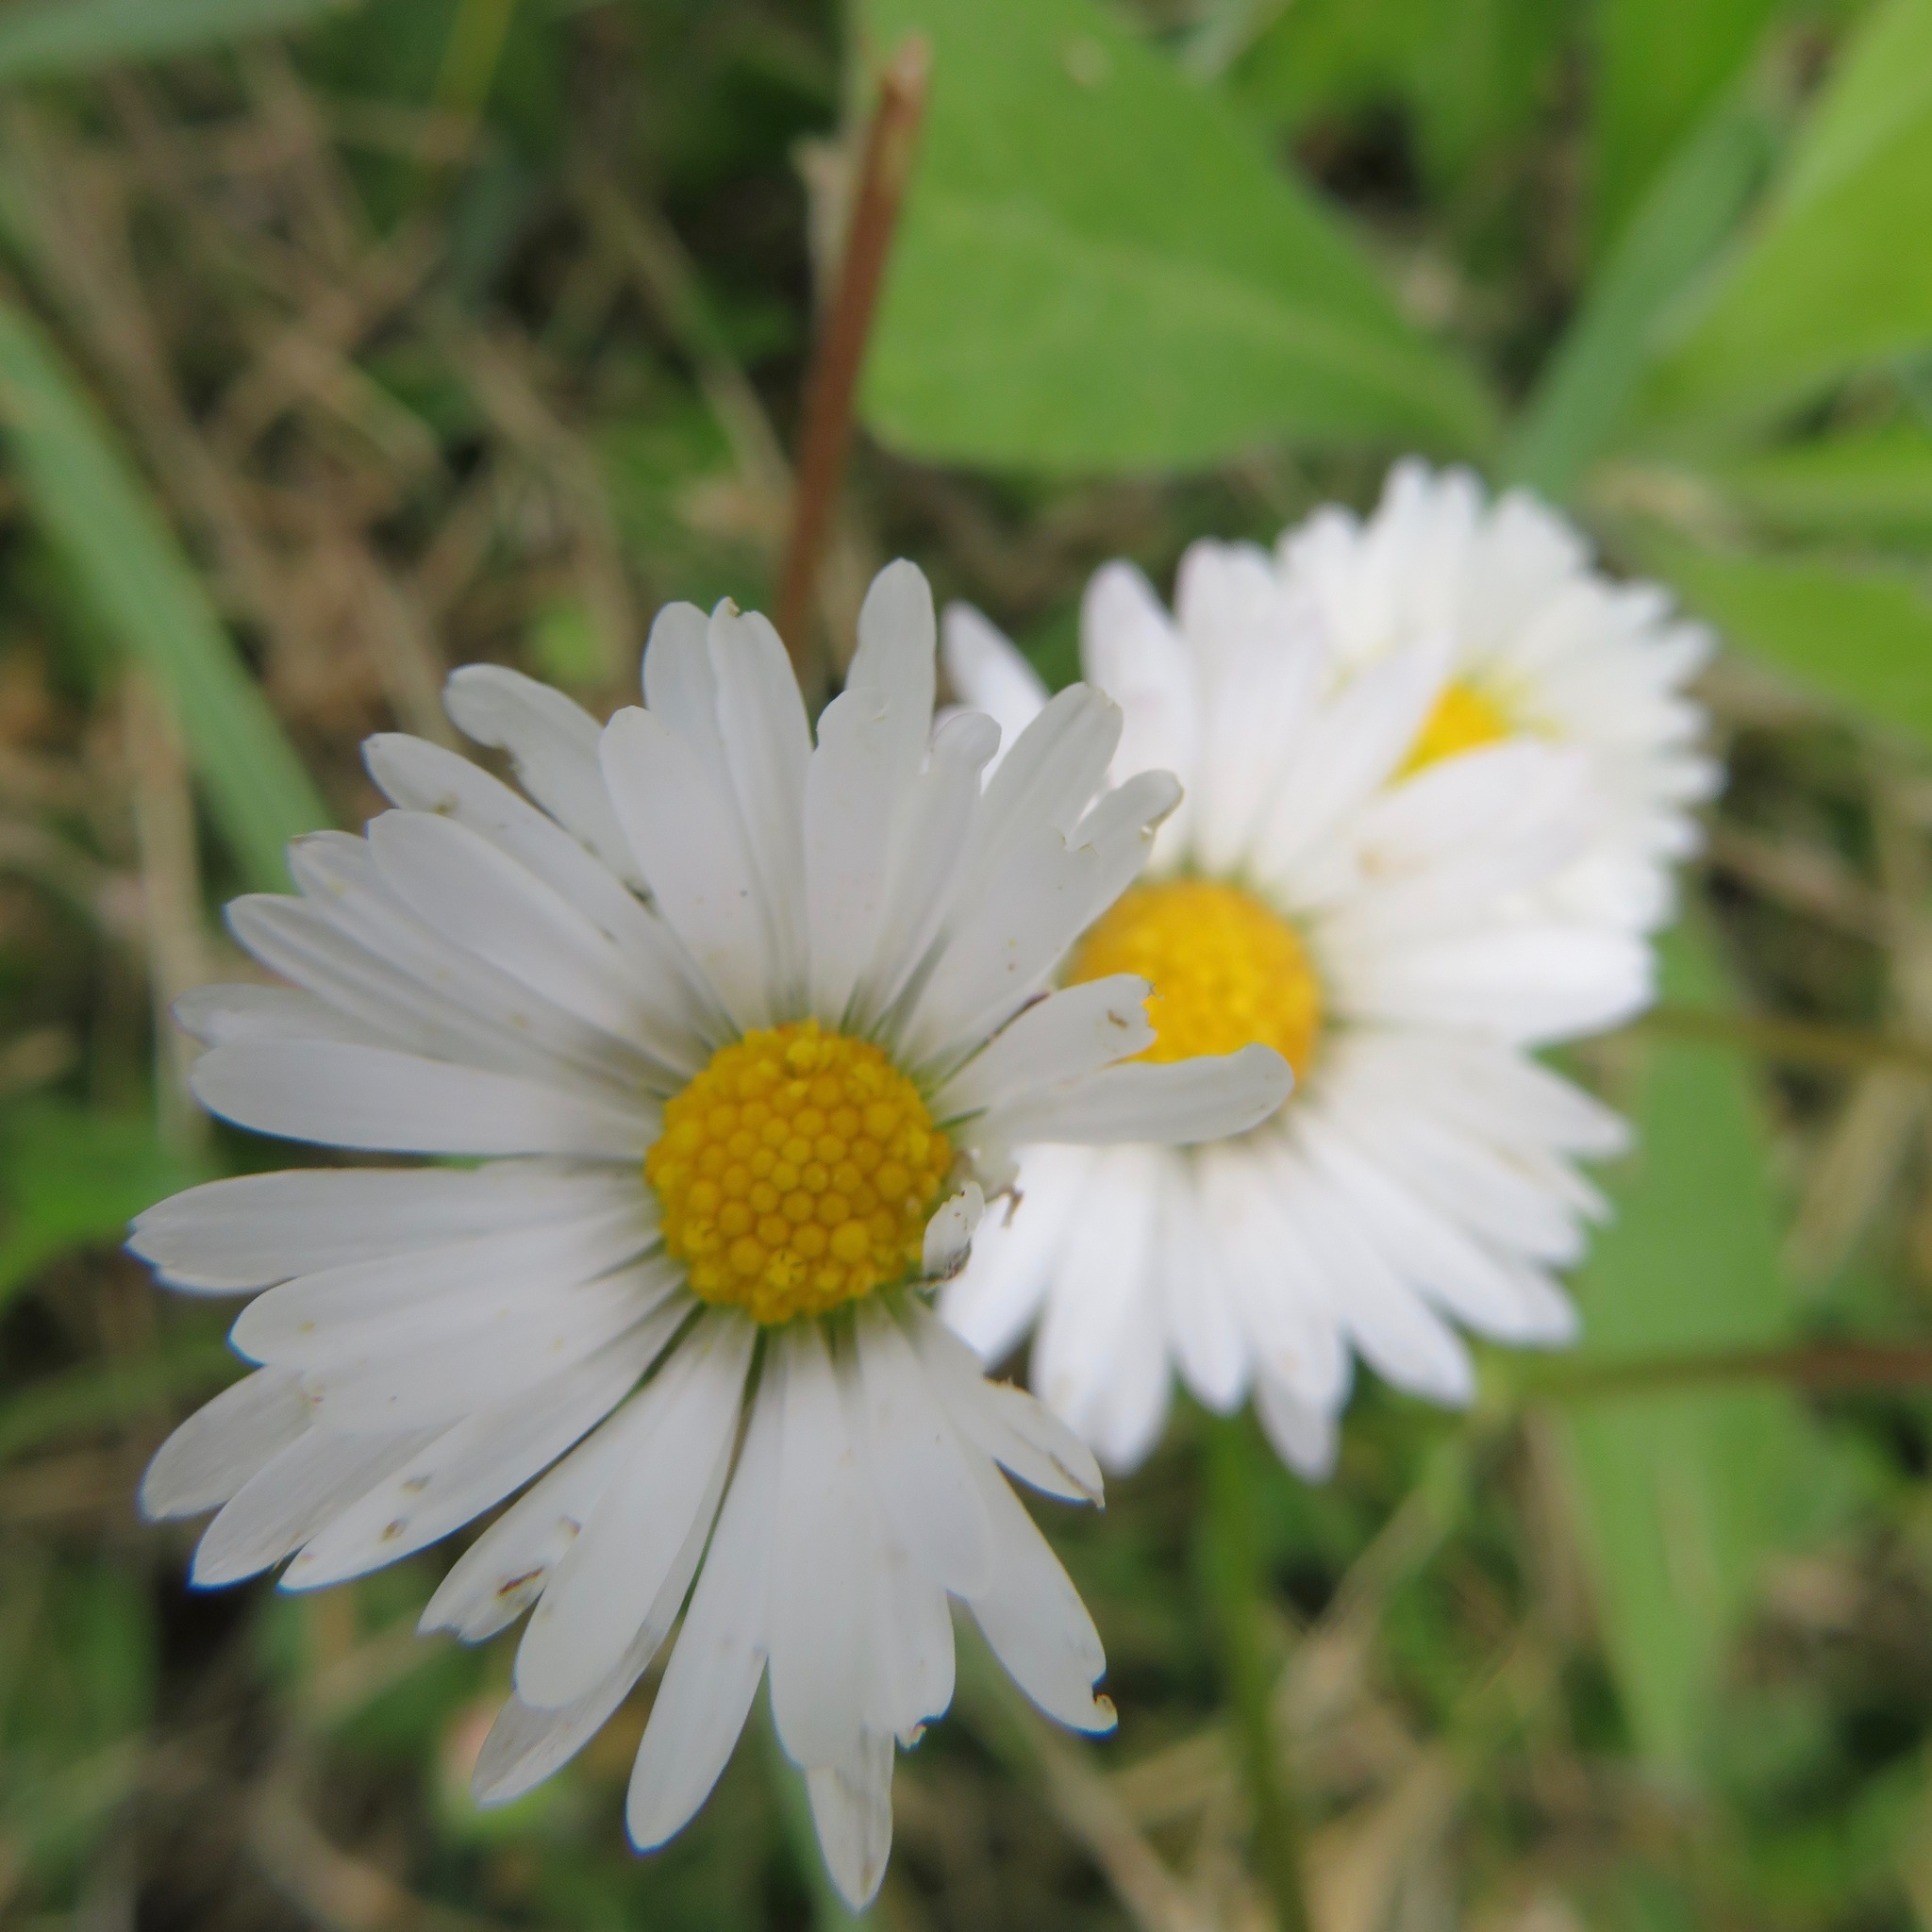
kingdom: Plantae
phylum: Tracheophyta
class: Magnoliopsida
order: Asterales
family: Asteraceae
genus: Bellis
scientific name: Bellis perennis
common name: Lawndaisy
